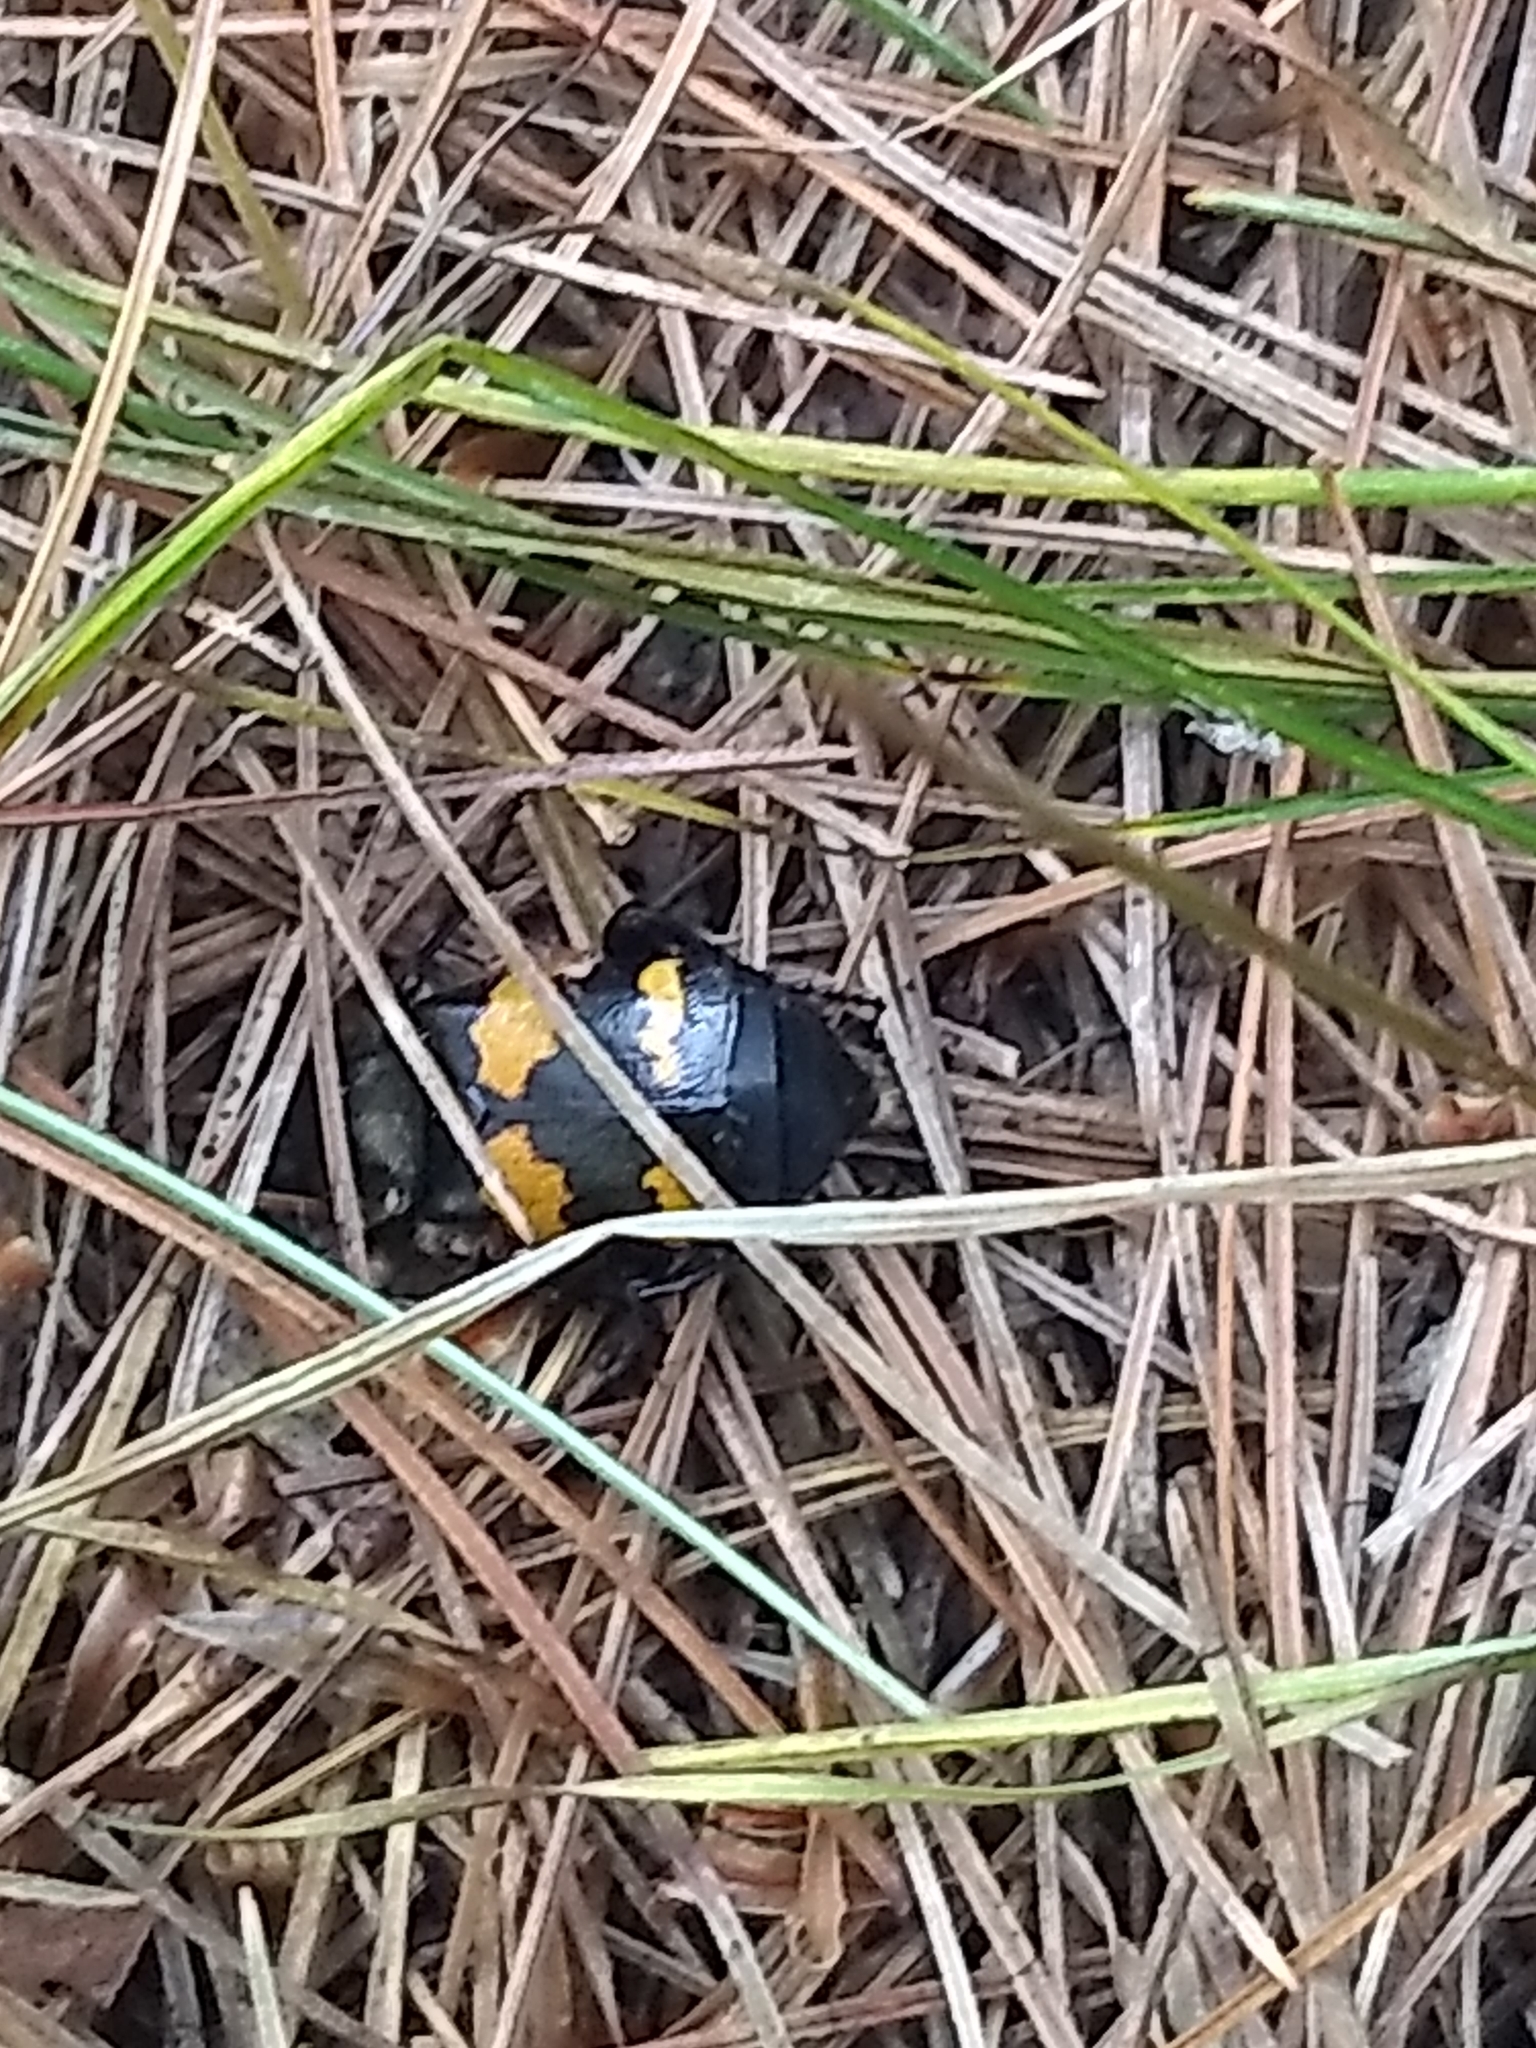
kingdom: Animalia
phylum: Arthropoda
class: Insecta
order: Coleoptera
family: Staphylinidae
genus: Nicrophorus
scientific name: Nicrophorus tomentosus
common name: Tomentose burying beetle
